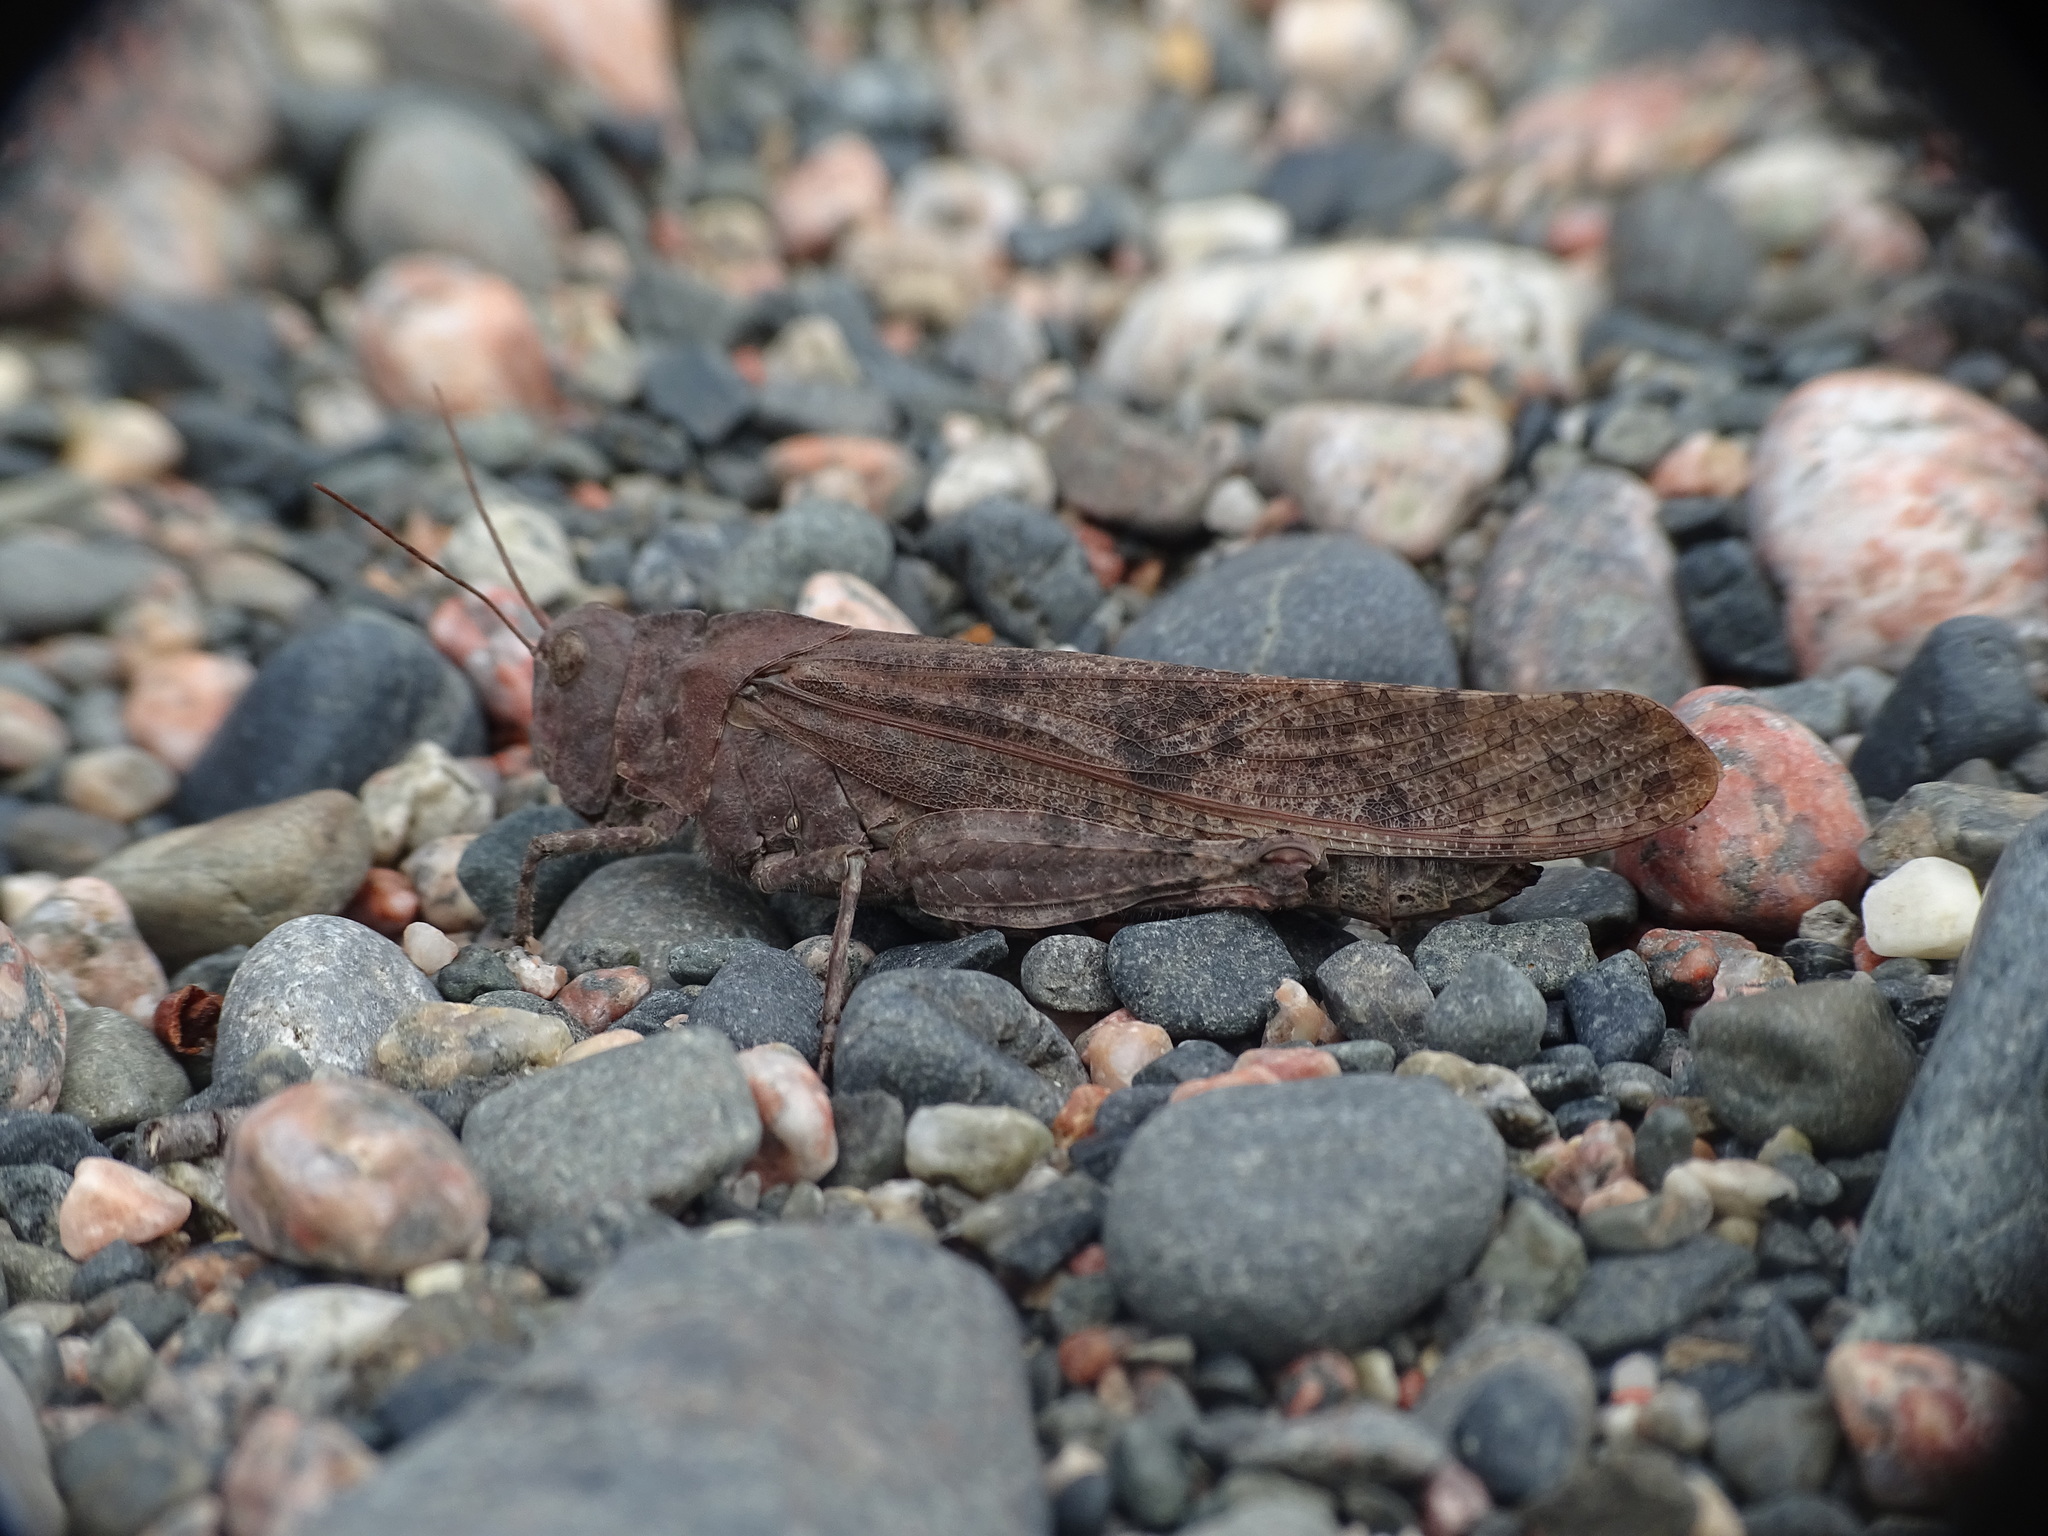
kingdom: Animalia
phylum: Arthropoda
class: Insecta
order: Orthoptera
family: Acrididae
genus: Dissosteira
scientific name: Dissosteira carolina
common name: Carolina grasshopper
